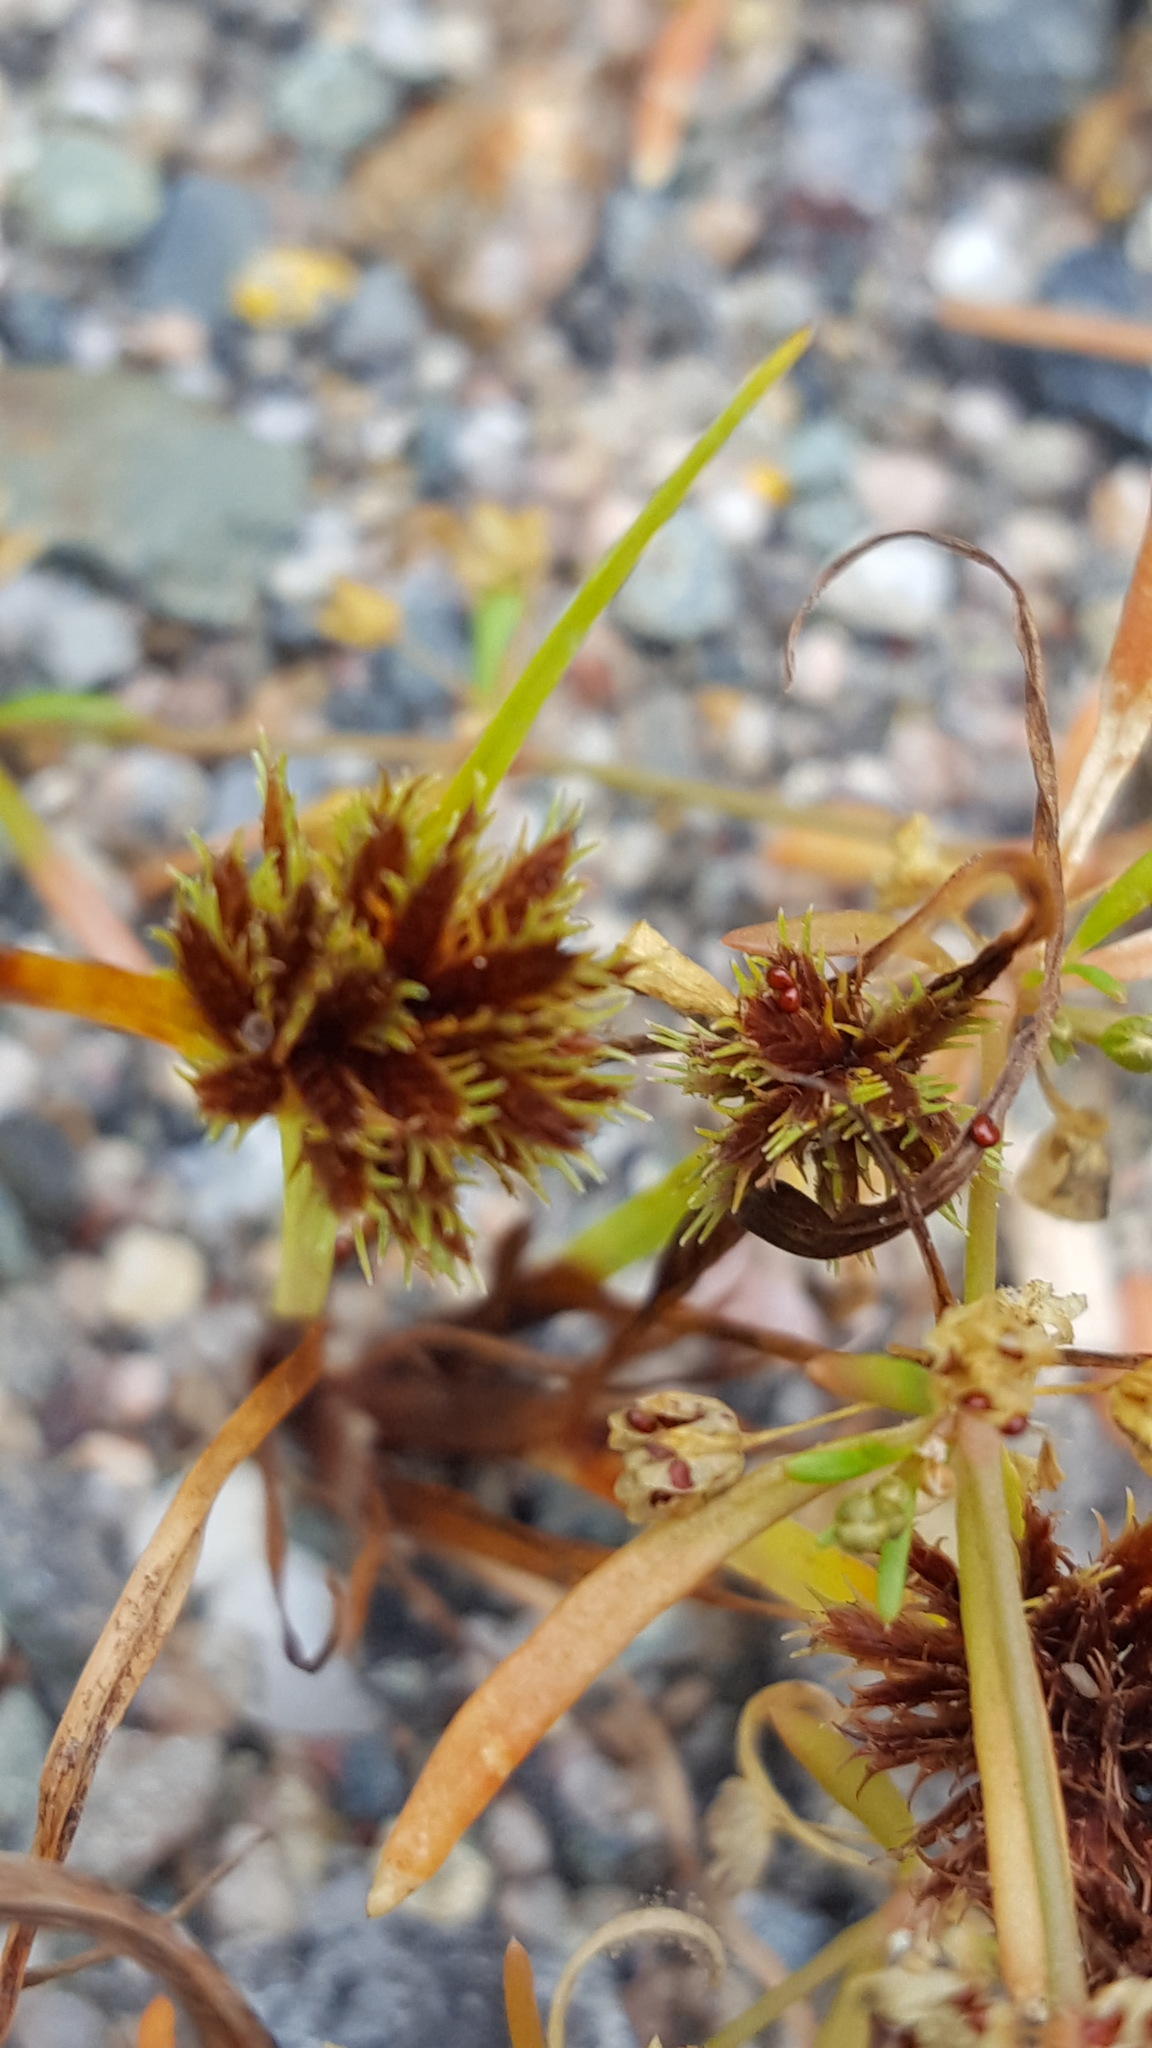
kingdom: Plantae
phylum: Tracheophyta
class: Liliopsida
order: Poales
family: Cyperaceae
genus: Cyperus
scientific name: Cyperus squarrosus
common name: Awned cyperus
